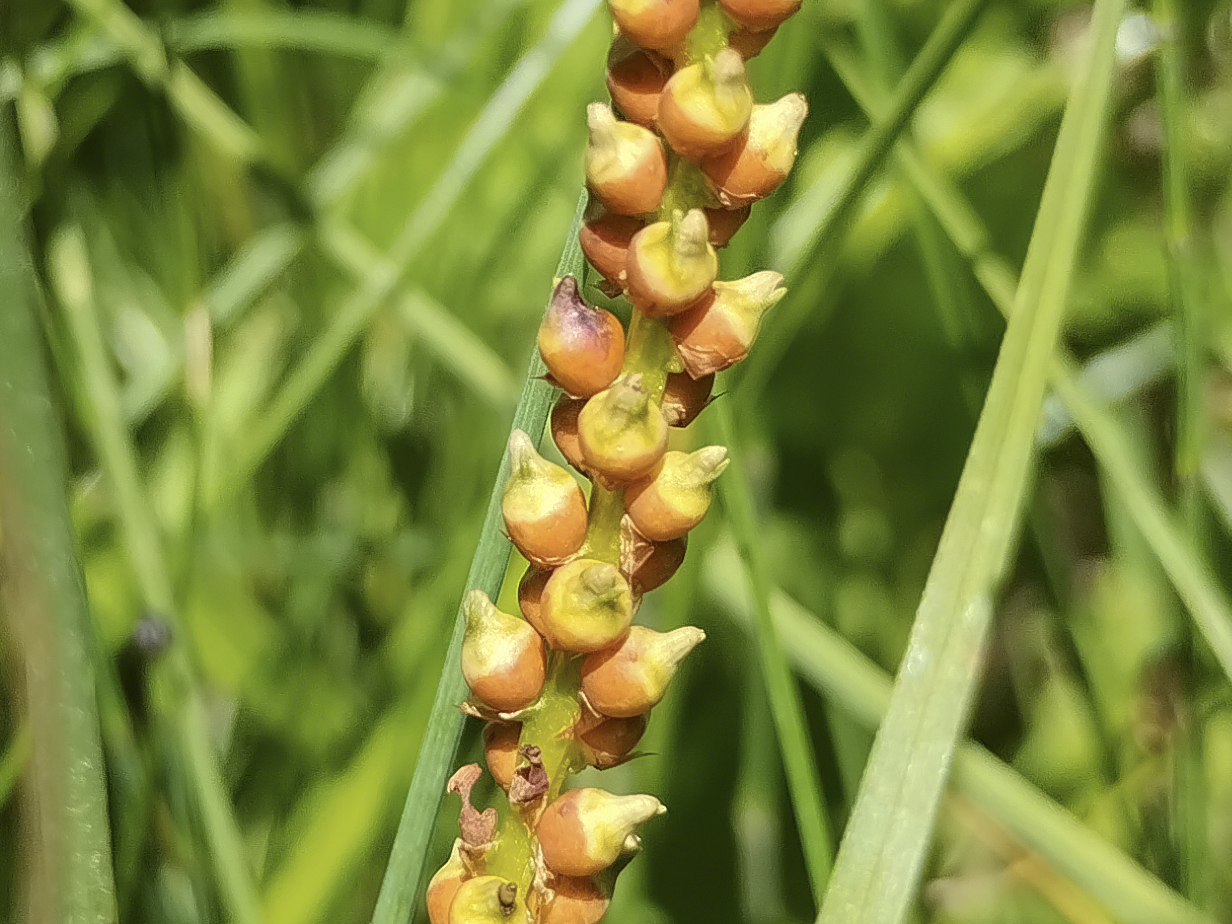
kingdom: Plantae
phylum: Tracheophyta
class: Magnoliopsida
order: Caryophyllales
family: Polygonaceae
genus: Bistorta
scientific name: Bistorta vivipara
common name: Alpine bistort
